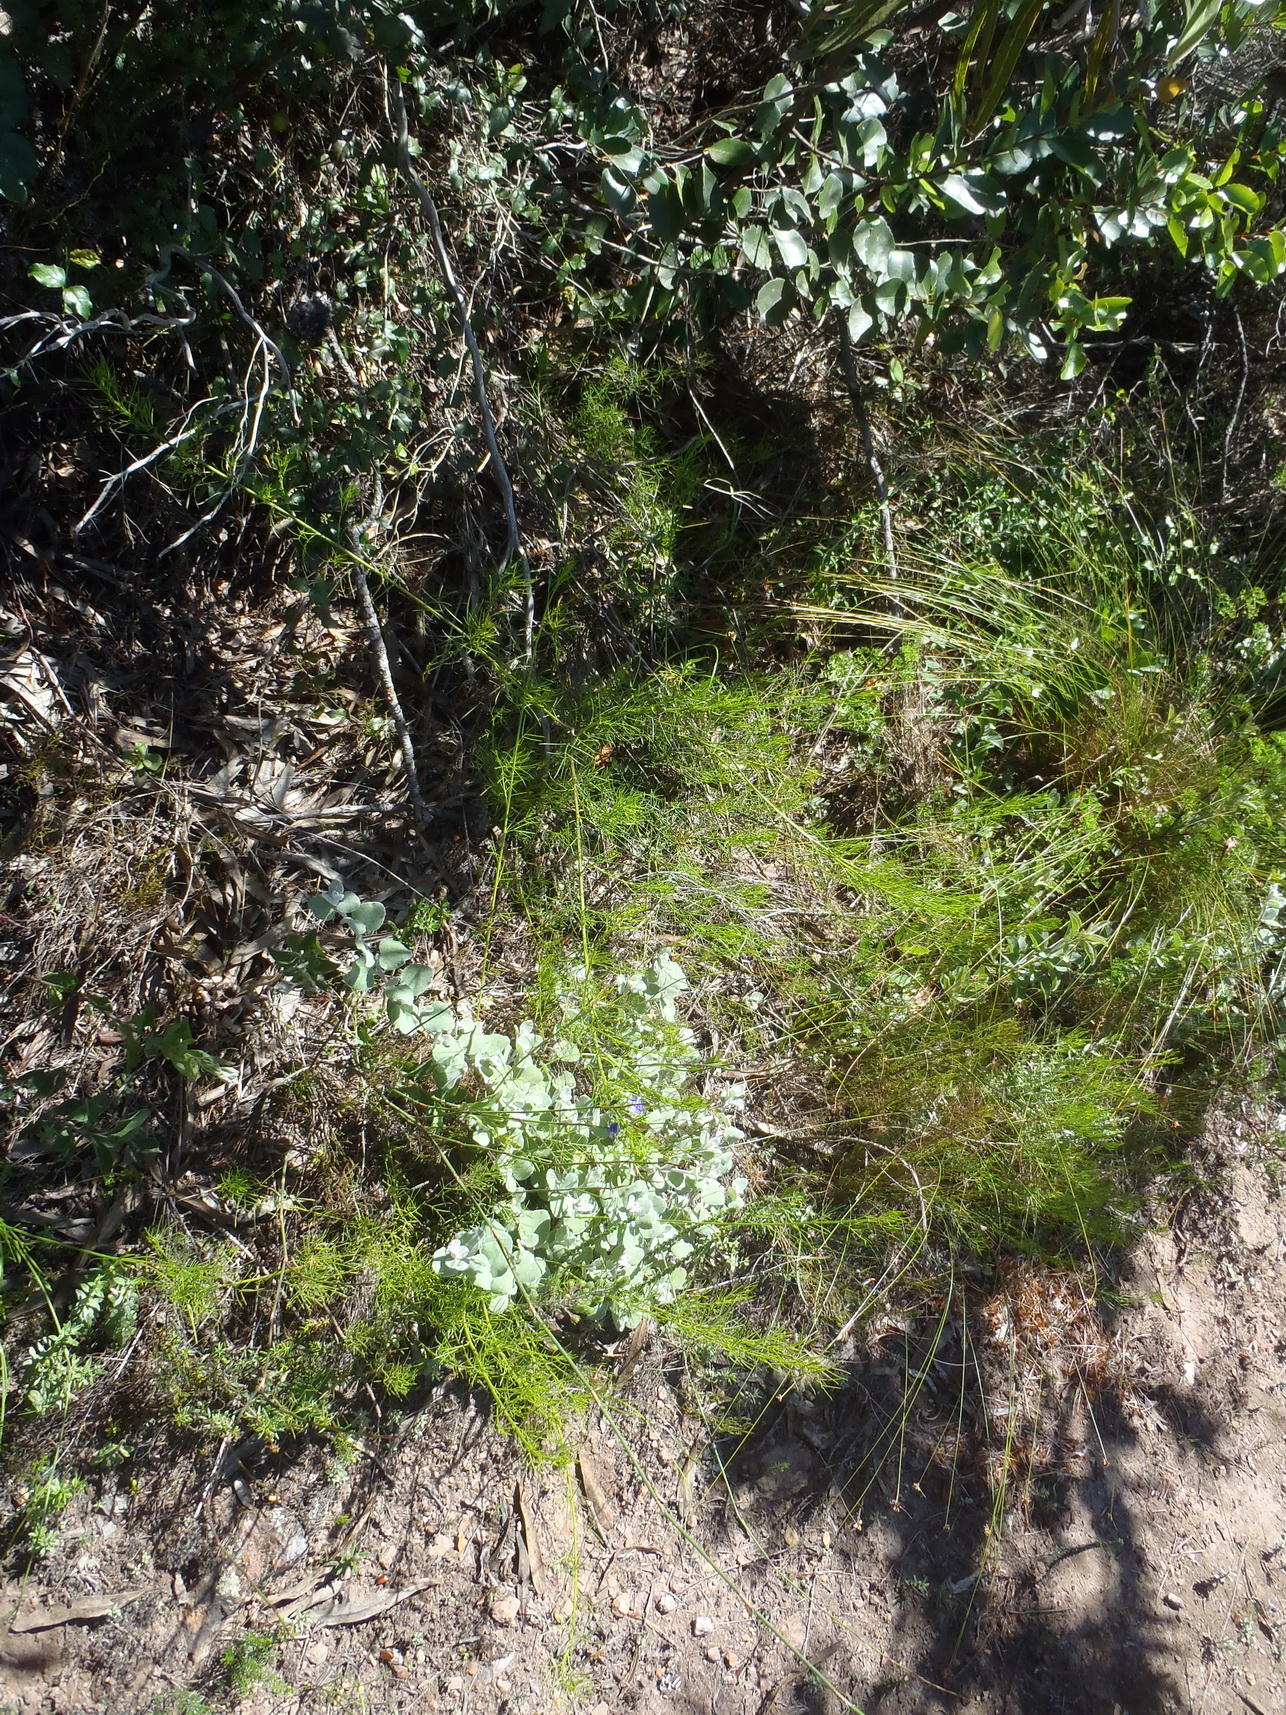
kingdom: Plantae
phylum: Tracheophyta
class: Magnoliopsida
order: Fabales
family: Fabaceae
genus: Psoralea
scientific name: Psoralea azuroides
